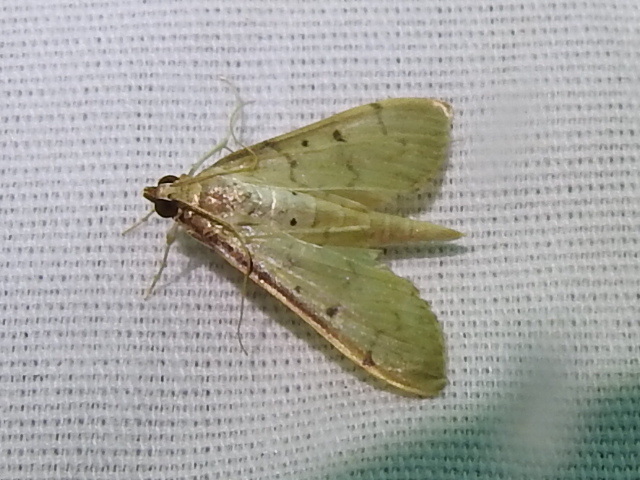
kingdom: Animalia
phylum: Arthropoda
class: Insecta
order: Lepidoptera
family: Crambidae
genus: Herpetogramma
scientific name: Herpetogramma bipunctalis
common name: Southern beet webworm
